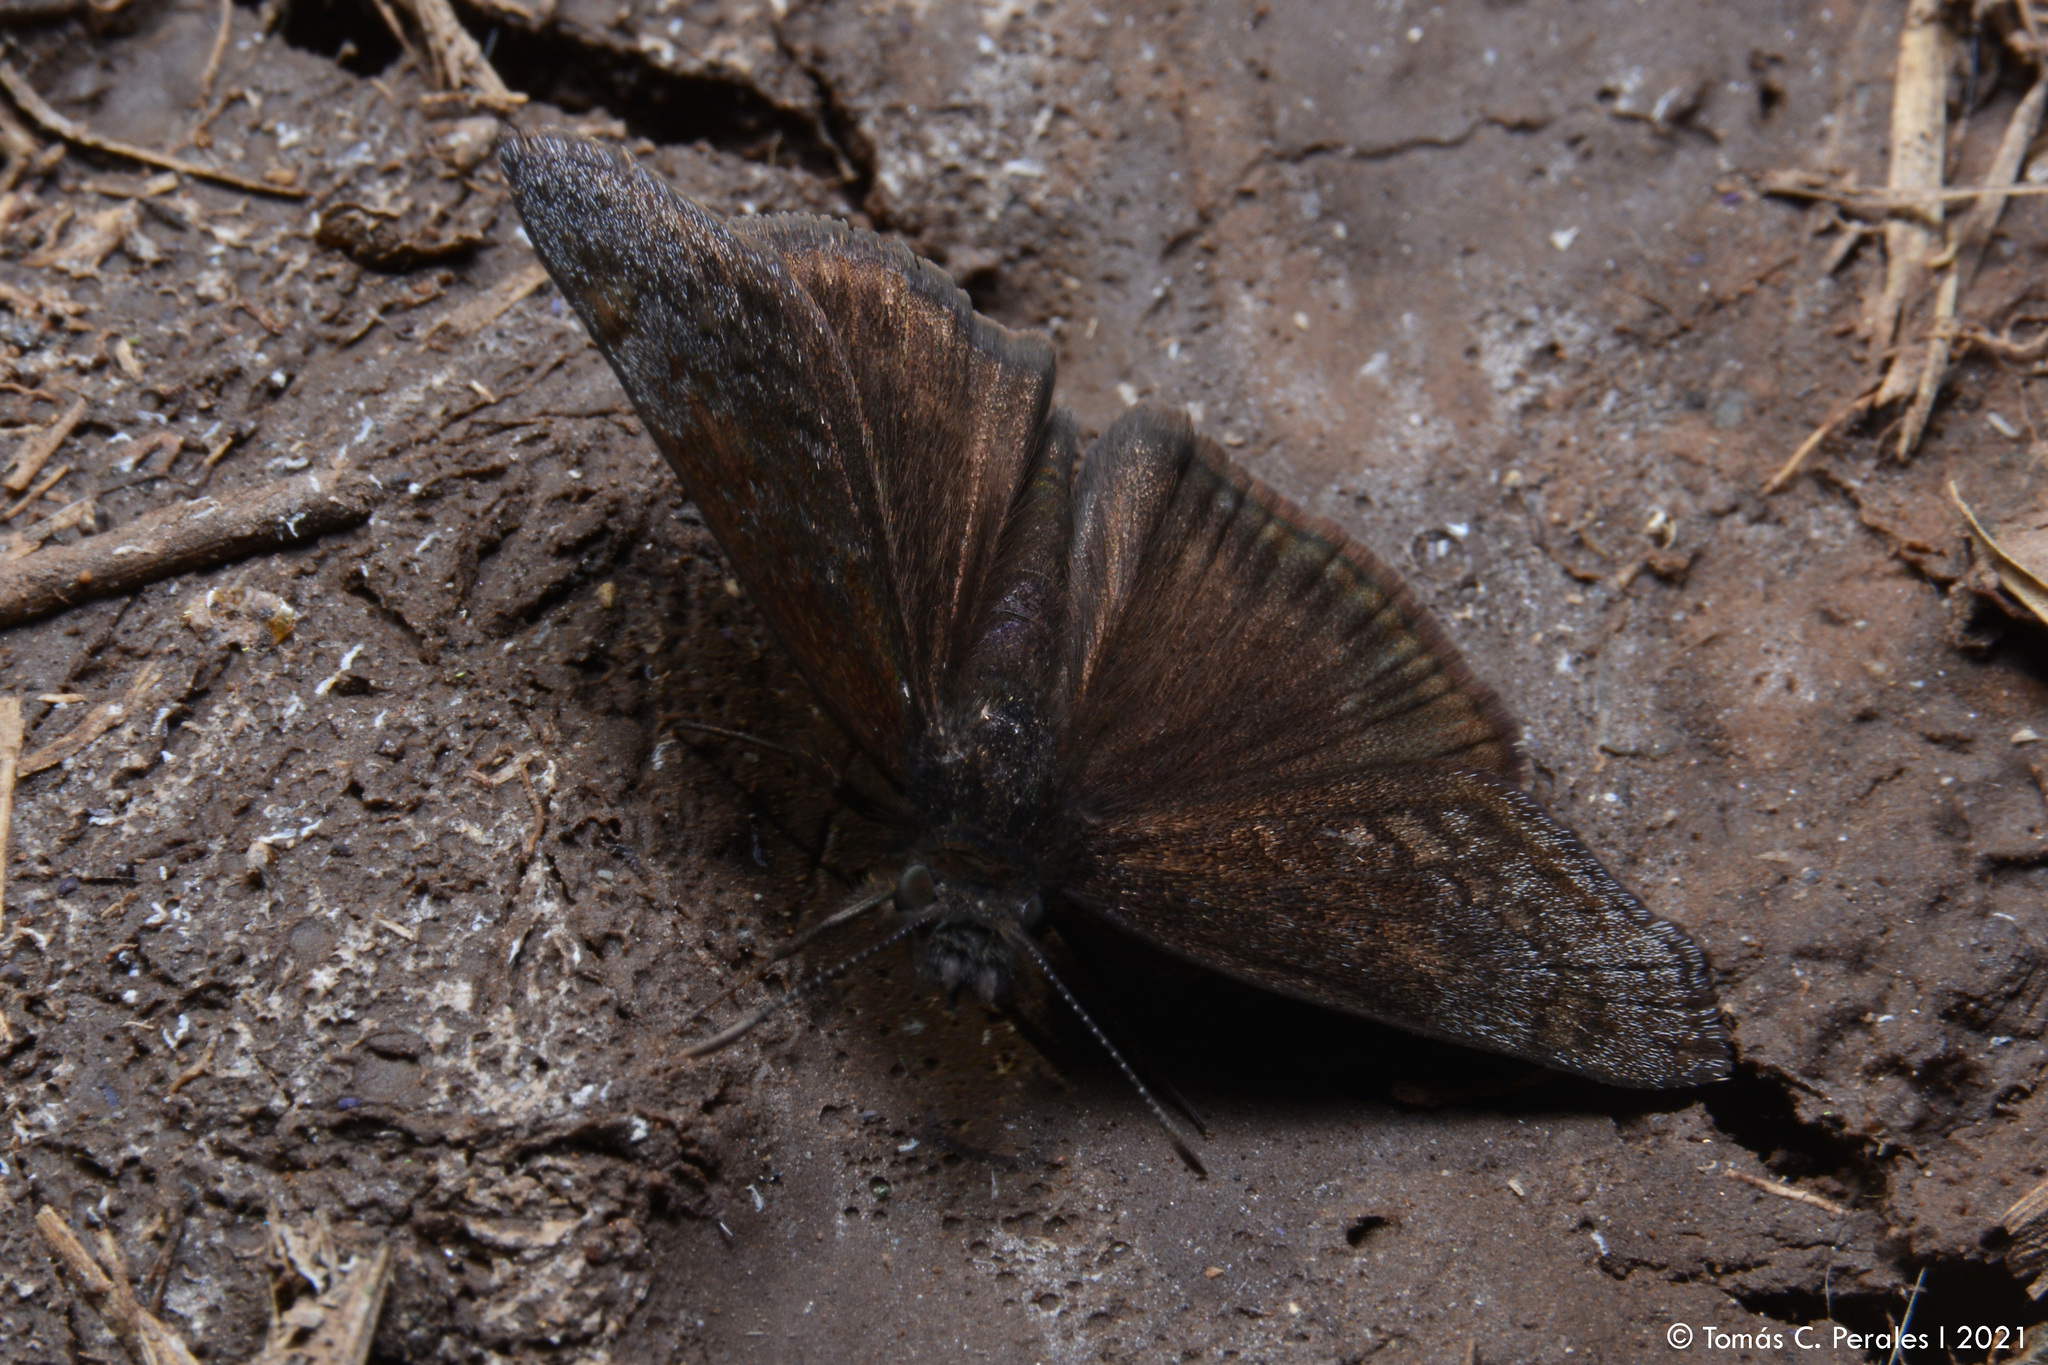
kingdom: Animalia
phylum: Arthropoda
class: Insecta
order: Lepidoptera
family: Hesperiidae
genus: Gesta
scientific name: Gesta austerus
